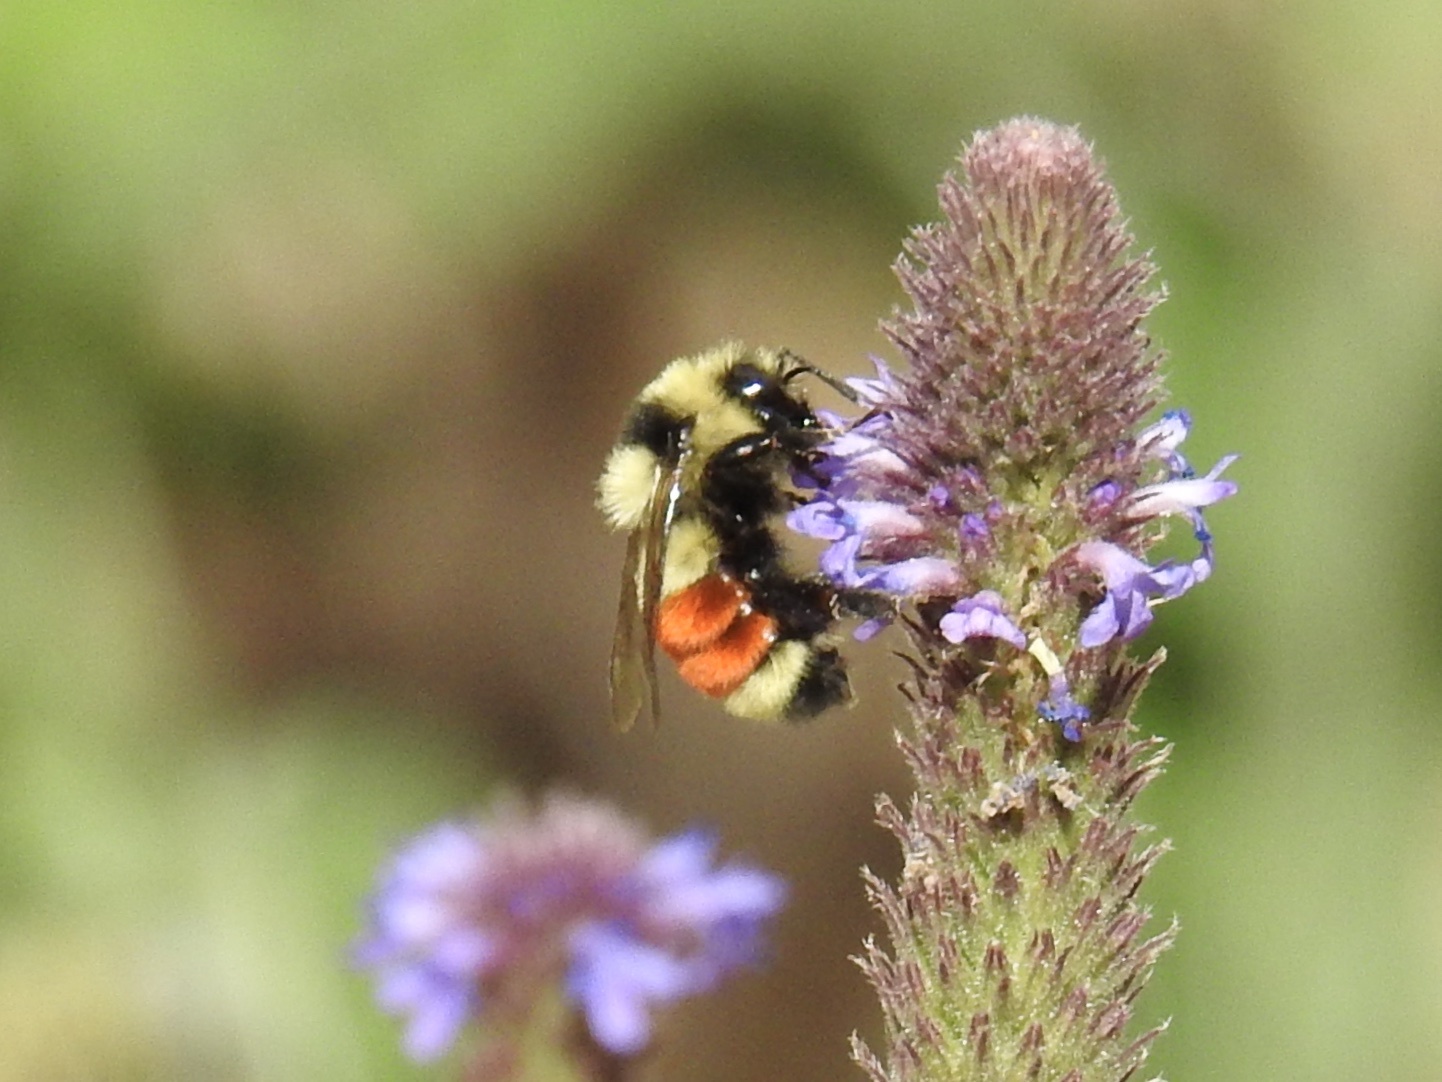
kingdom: Animalia
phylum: Arthropoda
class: Insecta
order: Hymenoptera
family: Apidae
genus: Bombus
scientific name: Bombus huntii
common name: Hunt bumble bee
